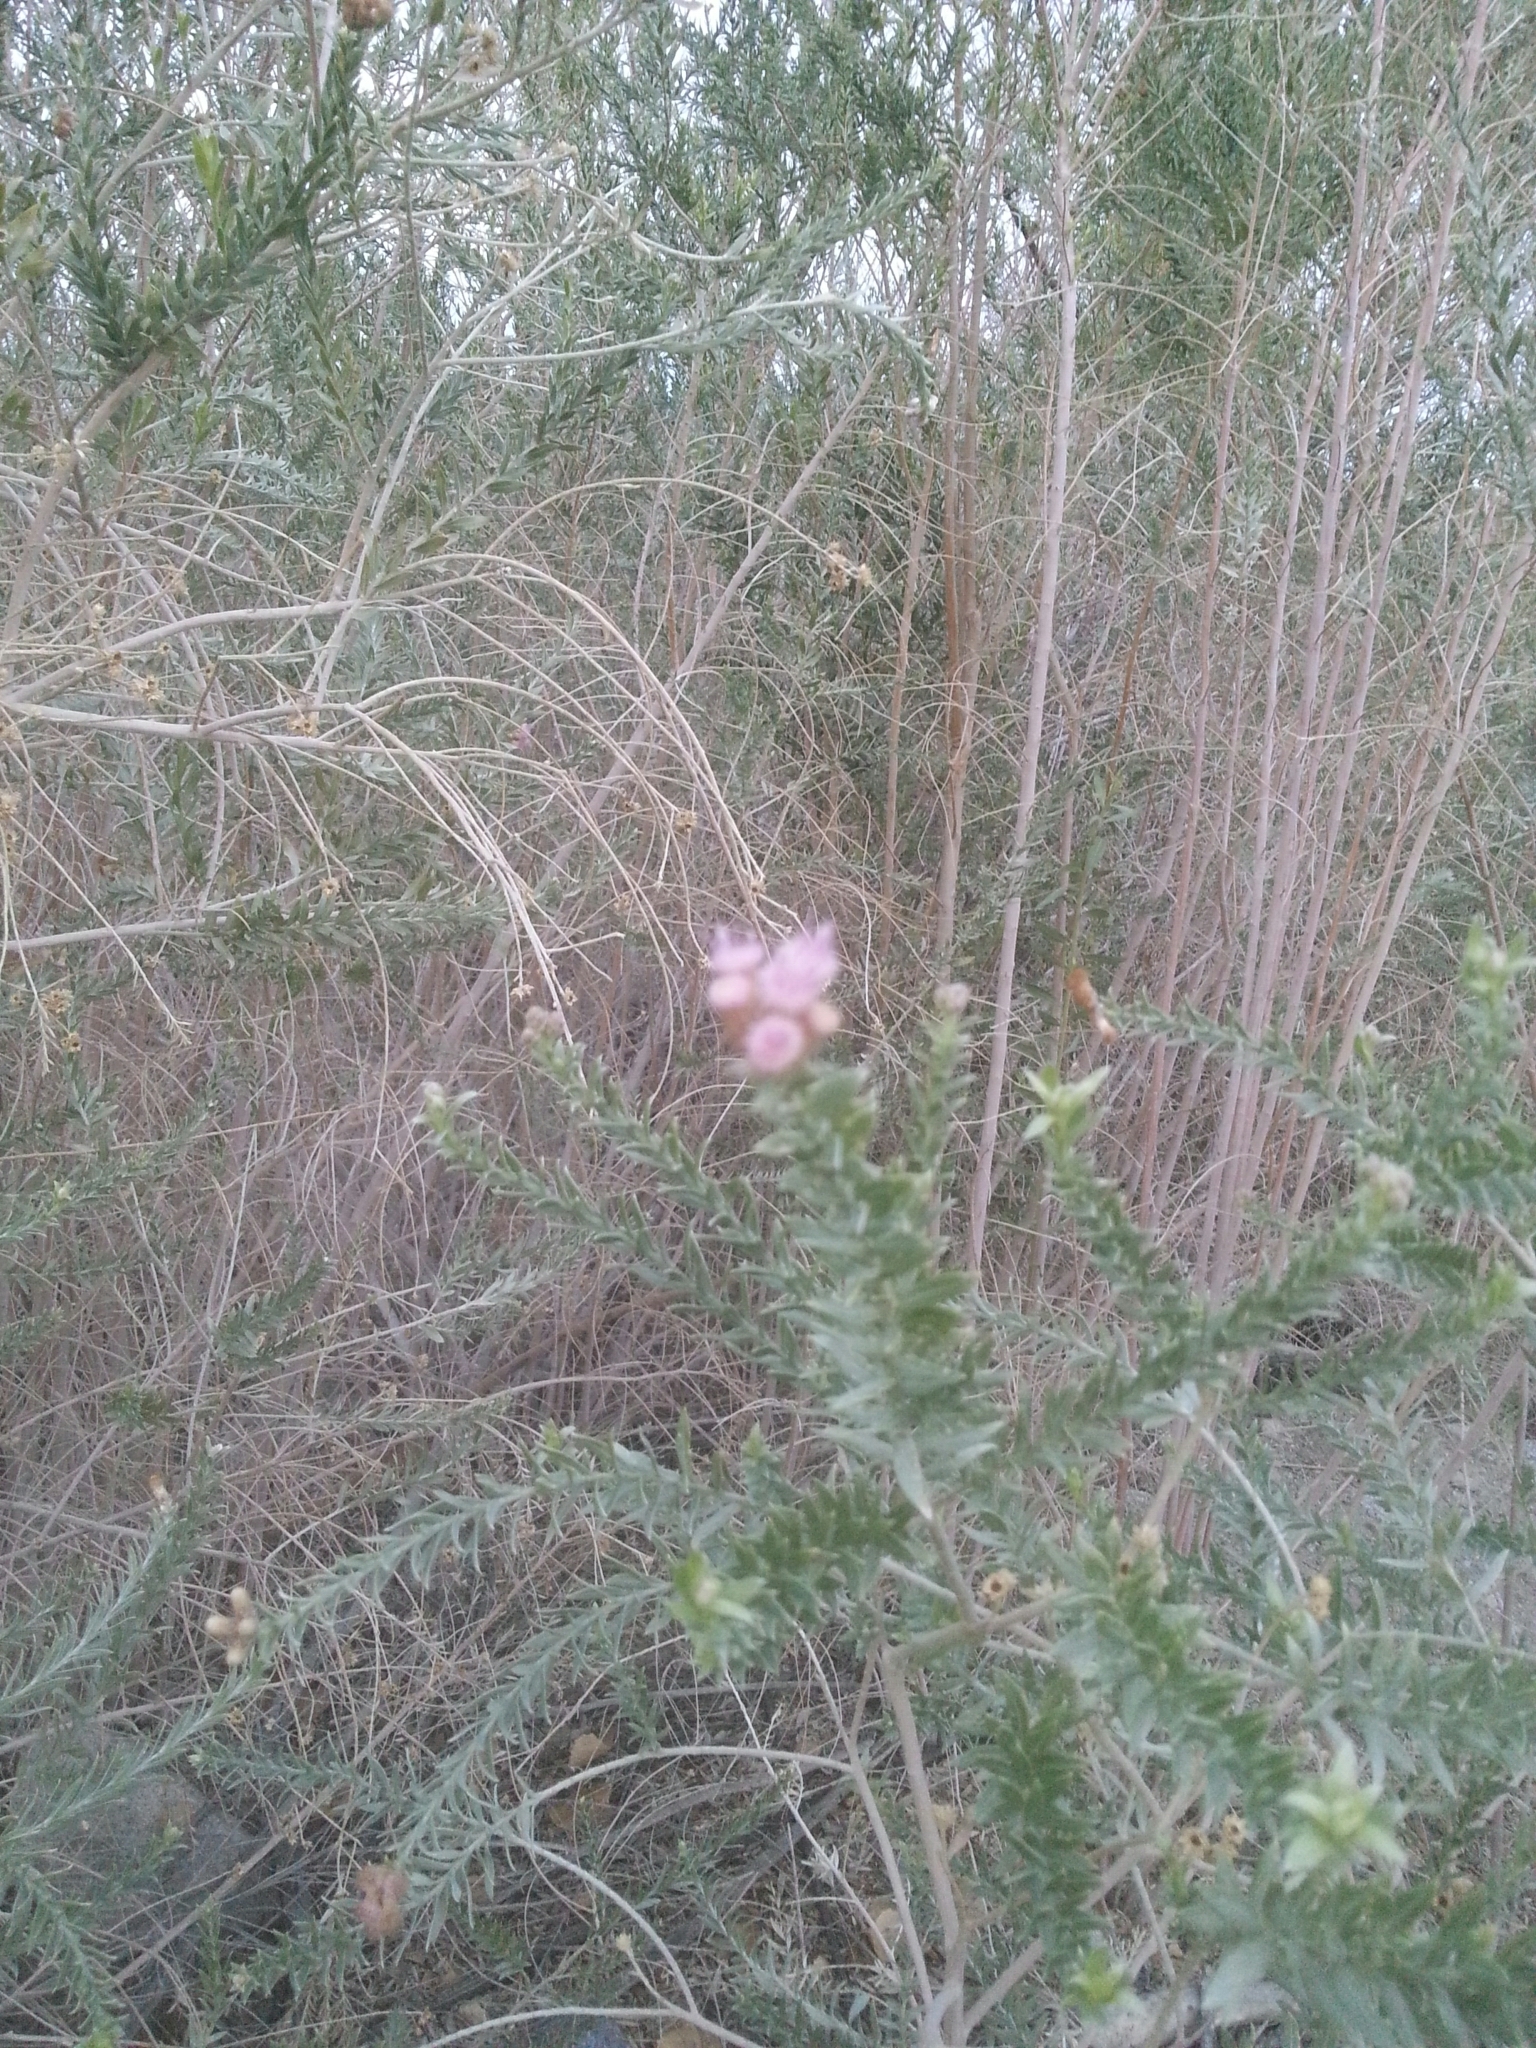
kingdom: Plantae
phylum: Tracheophyta
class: Magnoliopsida
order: Asterales
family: Asteraceae
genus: Pluchea
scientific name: Pluchea sericea
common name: Arrow-weed
